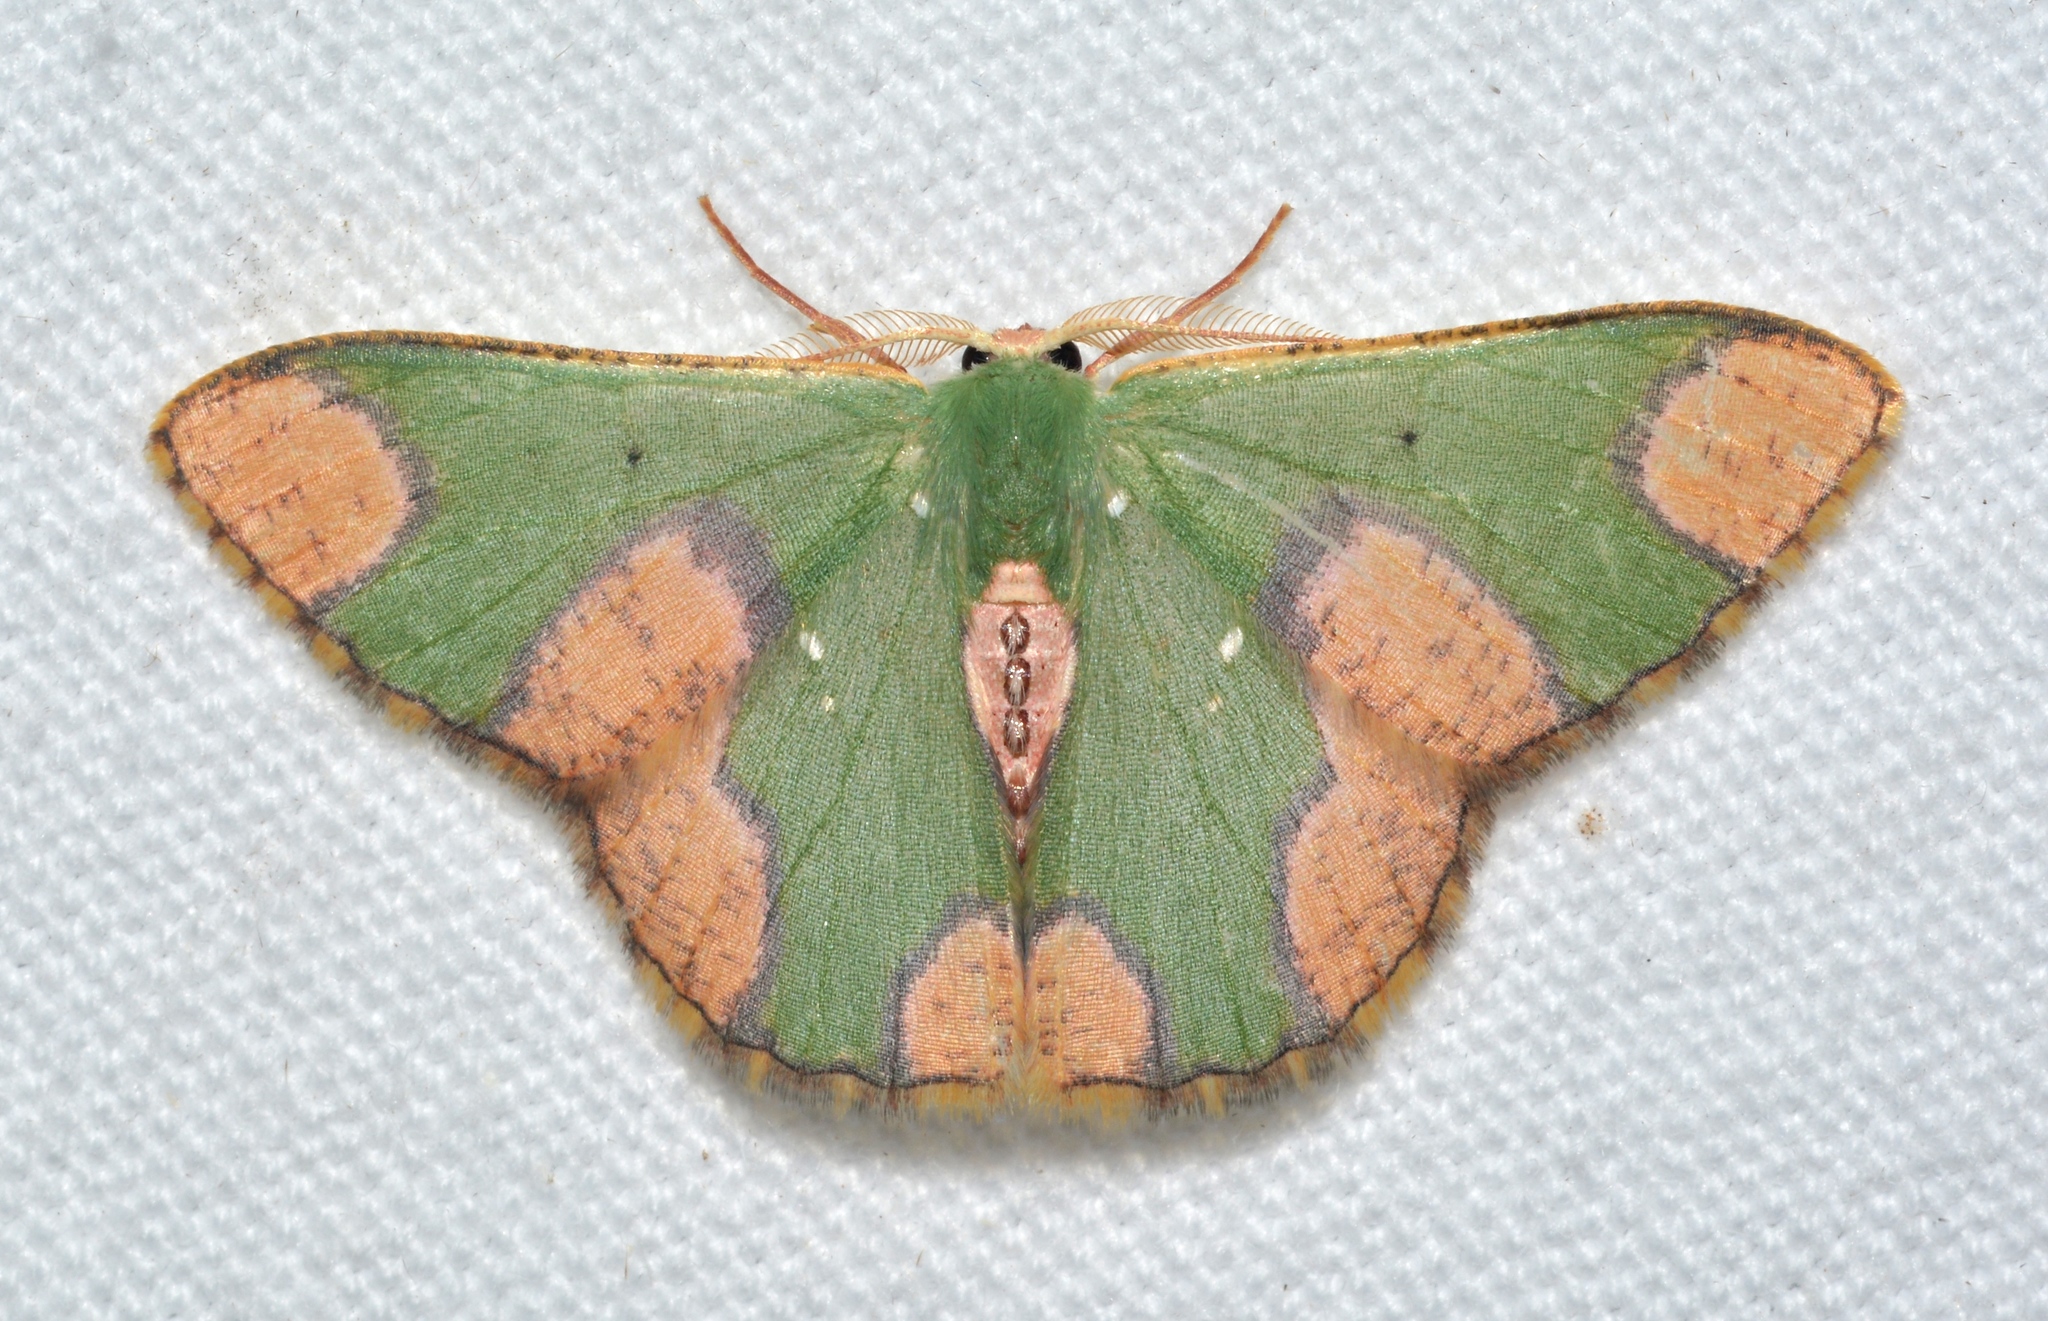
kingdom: Animalia
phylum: Arthropoda
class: Insecta
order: Lepidoptera
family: Geometridae
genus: Oospila
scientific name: Oospila depressa
